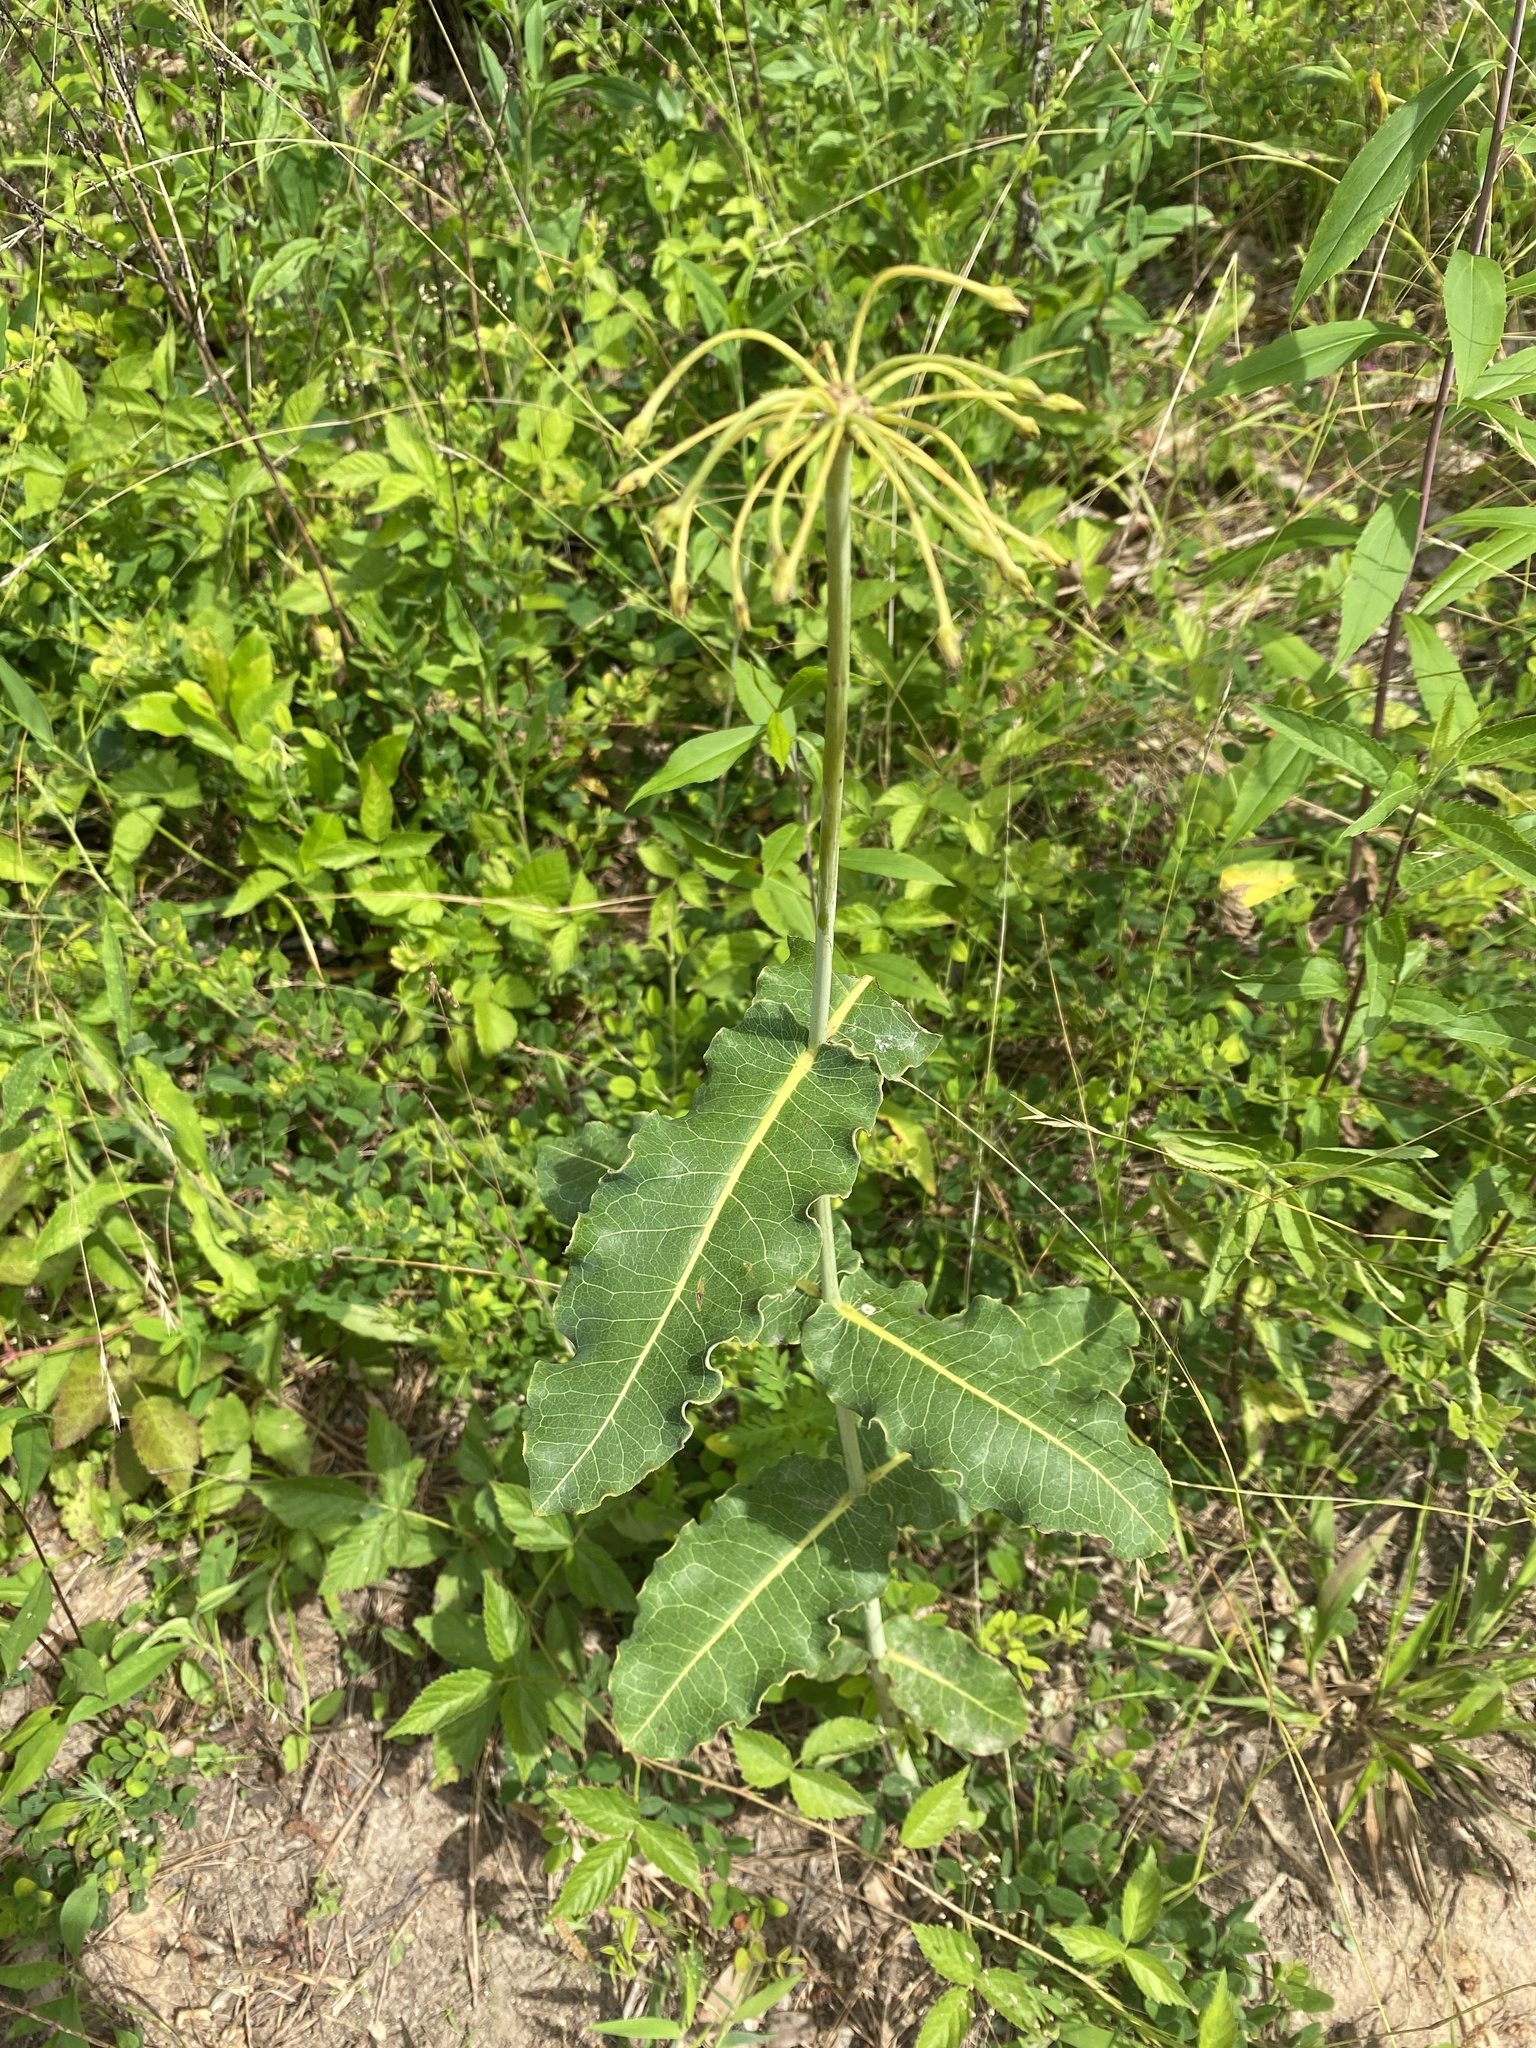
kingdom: Plantae
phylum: Tracheophyta
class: Magnoliopsida
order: Gentianales
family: Apocynaceae
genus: Asclepias
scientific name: Asclepias amplexicaulis
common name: Blunt-leaf milkweed
